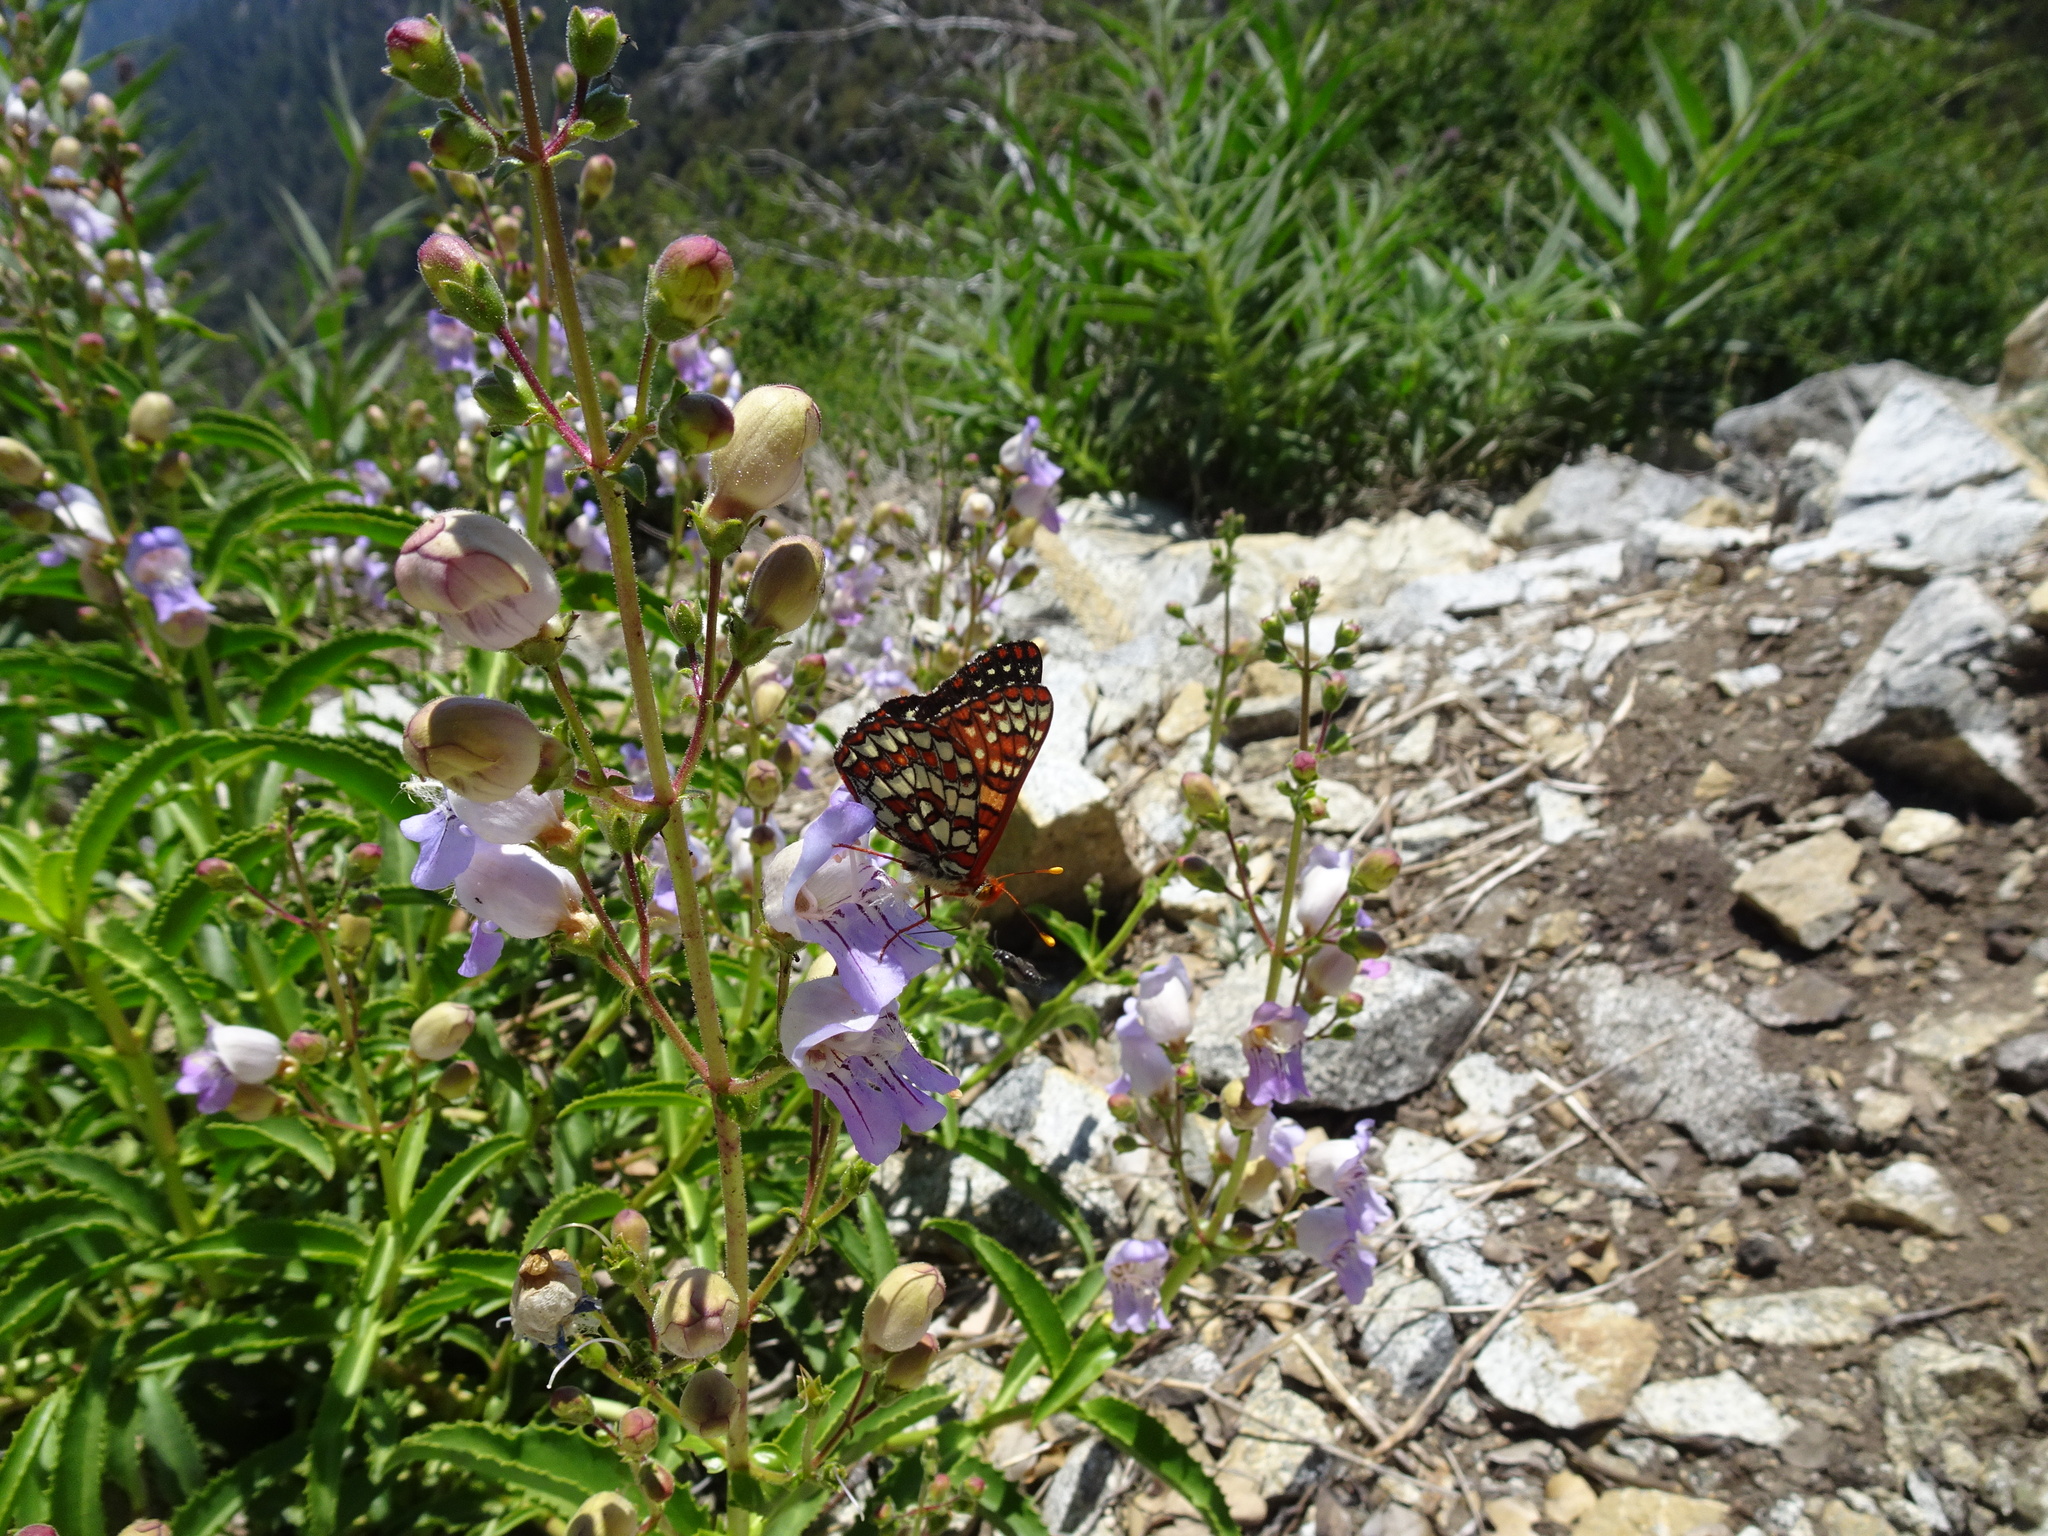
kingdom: Plantae
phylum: Tracheophyta
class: Magnoliopsida
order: Lamiales
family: Plantaginaceae
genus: Penstemon
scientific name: Penstemon grinnellii
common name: Grinnell's beardtongue
